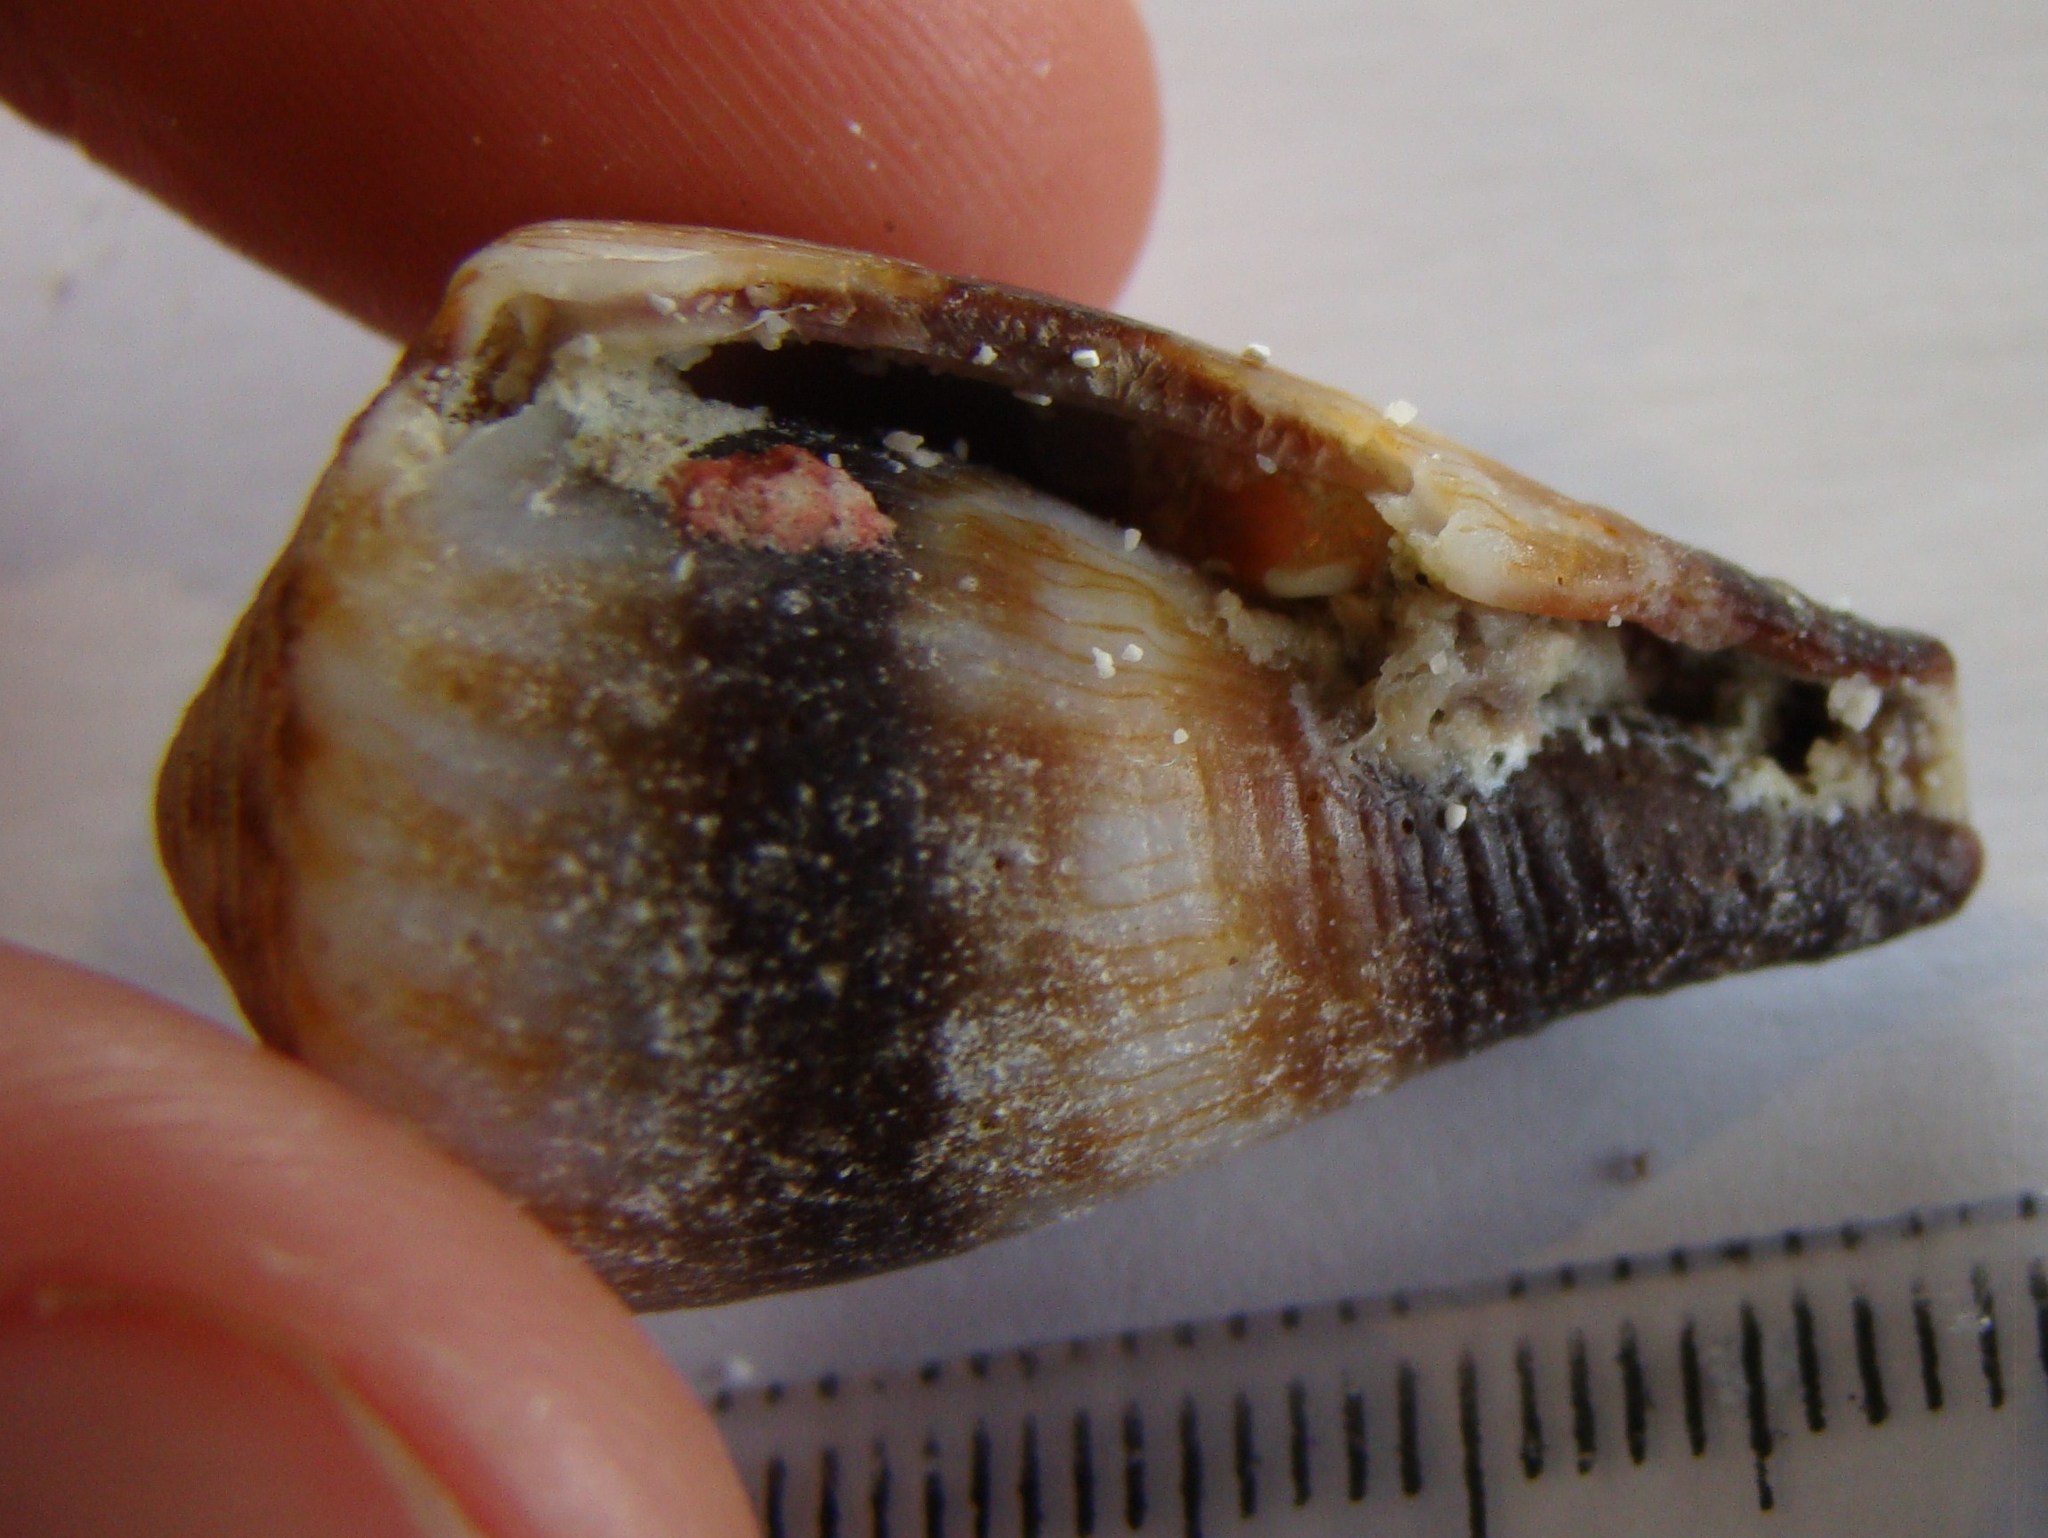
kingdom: Animalia
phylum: Mollusca
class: Gastropoda
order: Neogastropoda
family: Conidae
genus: Conus
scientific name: Conus miles
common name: Soldier cone
